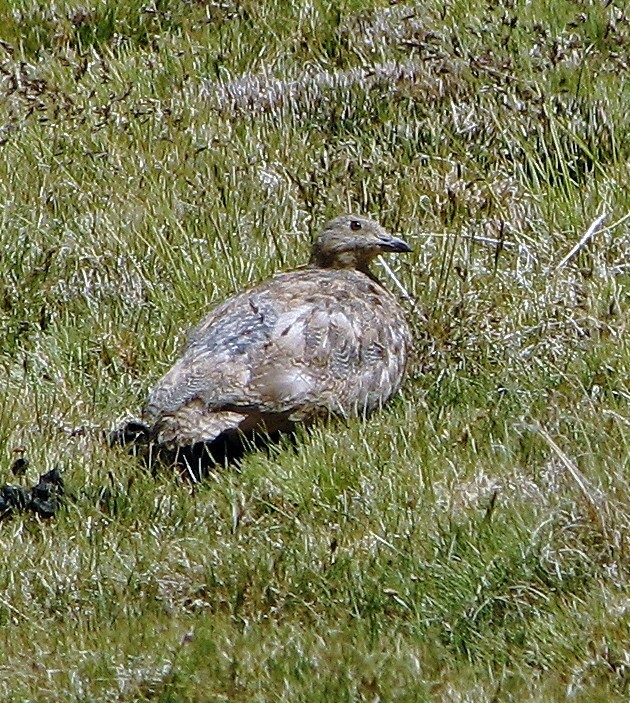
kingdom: Animalia
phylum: Chordata
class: Aves
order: Charadriiformes
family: Thinocoridae
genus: Attagis
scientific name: Attagis gayi
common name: Rufous-bellied seedsnipe
